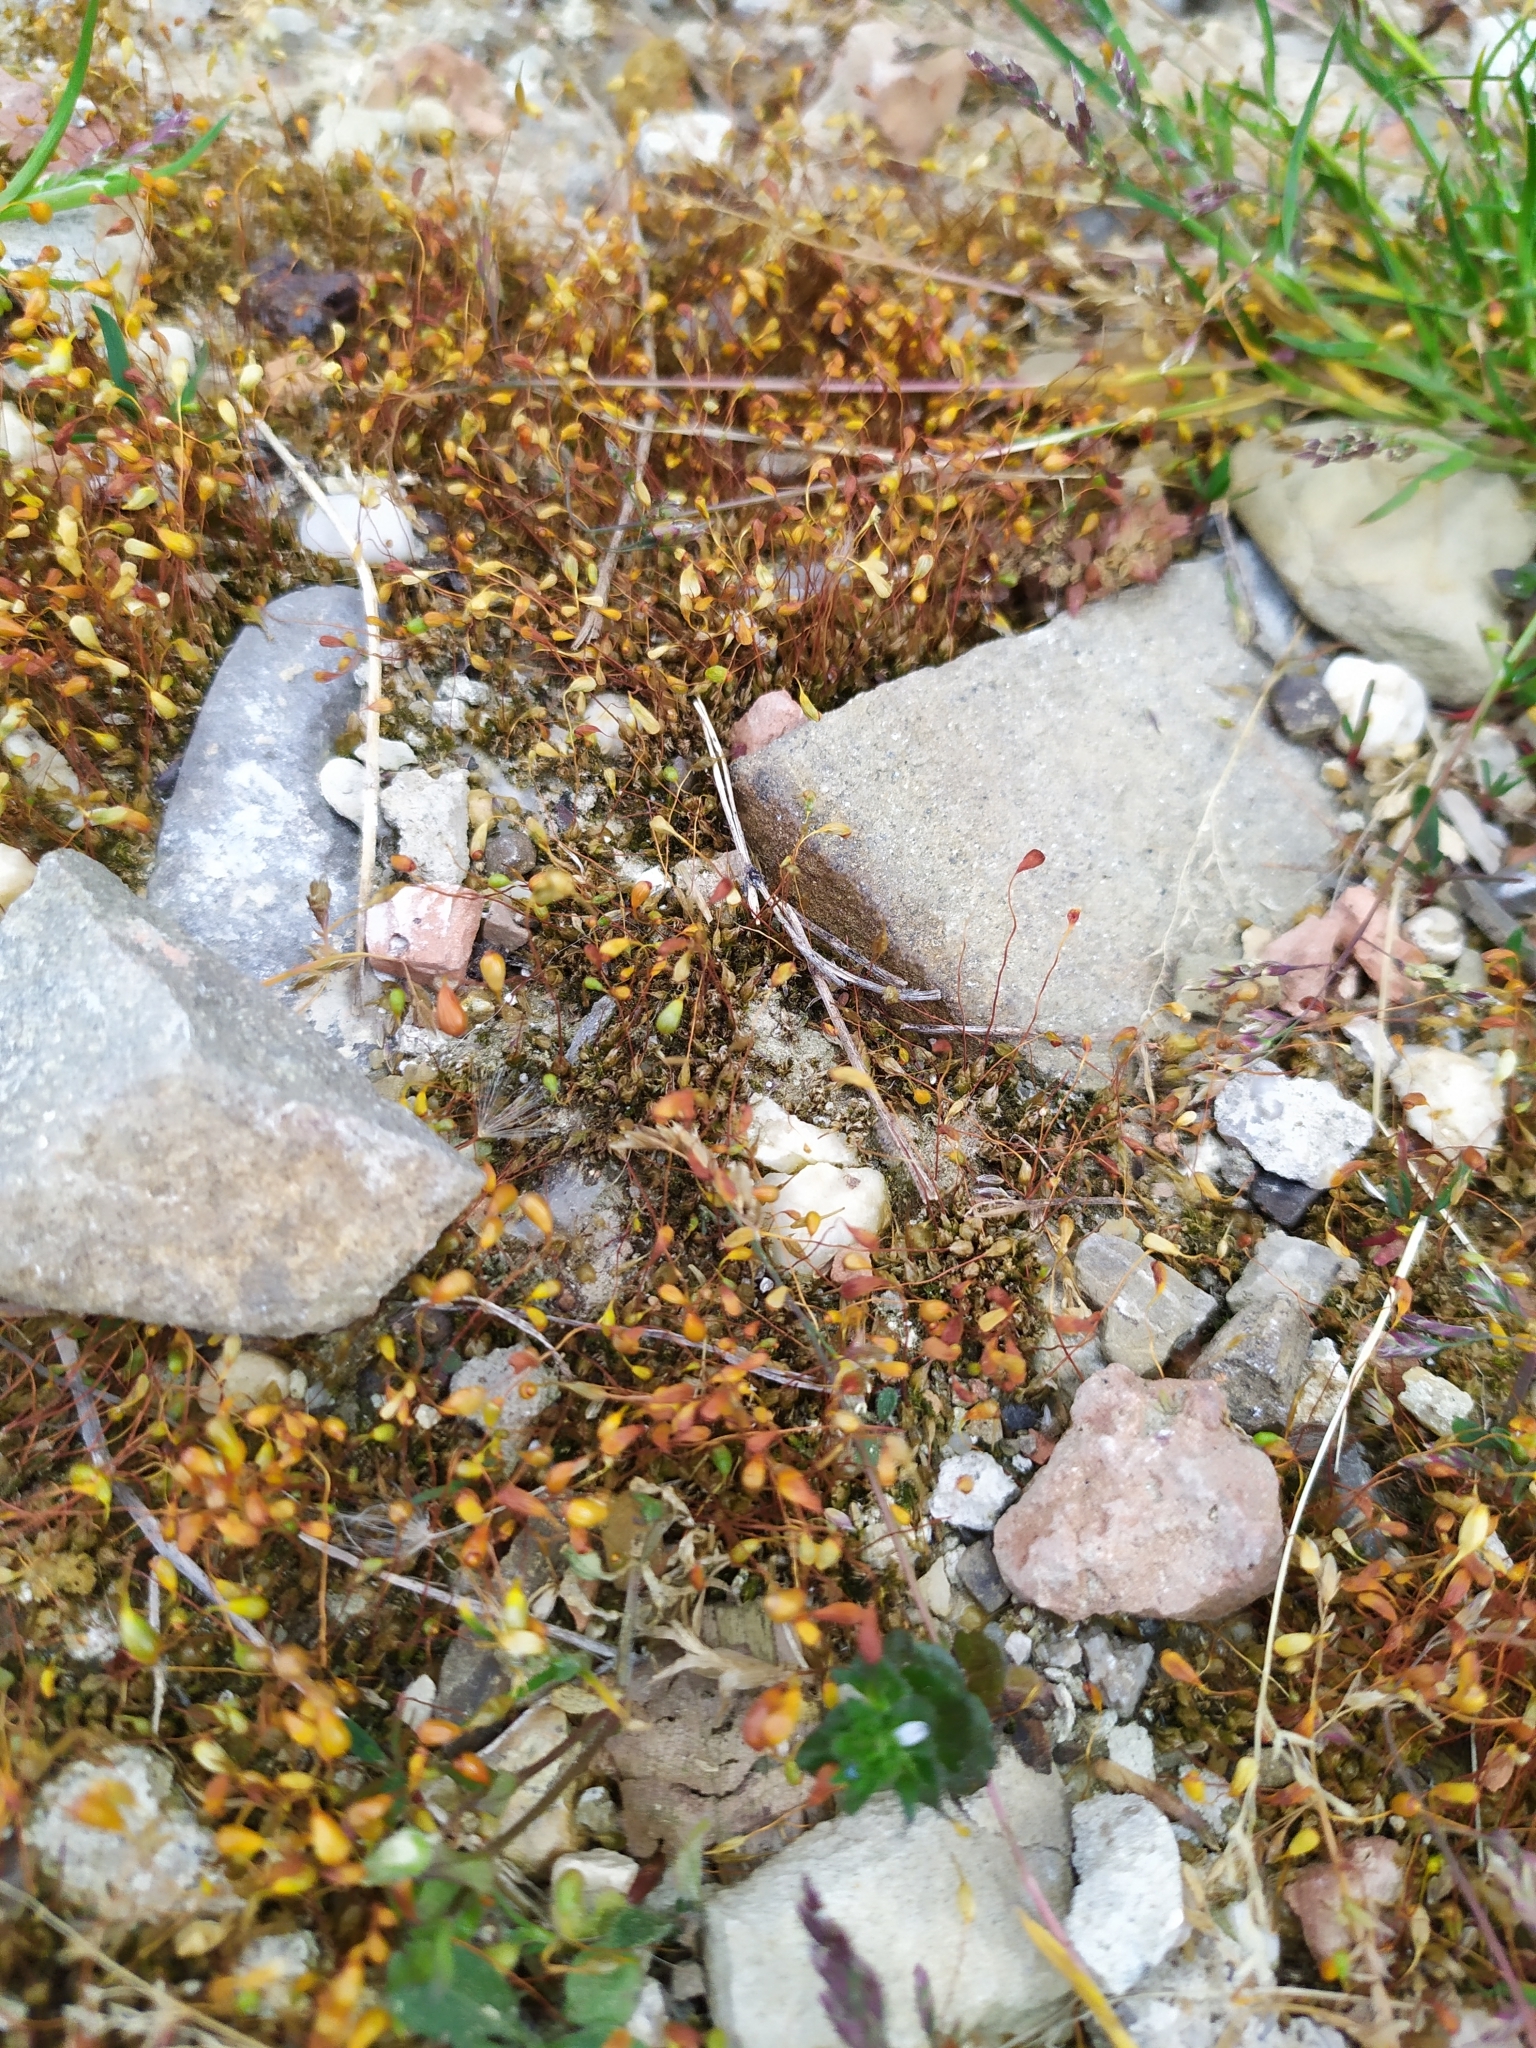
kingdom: Plantae
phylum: Bryophyta
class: Bryopsida
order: Funariales
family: Funariaceae
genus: Funaria
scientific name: Funaria hygrometrica
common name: Common cord moss
